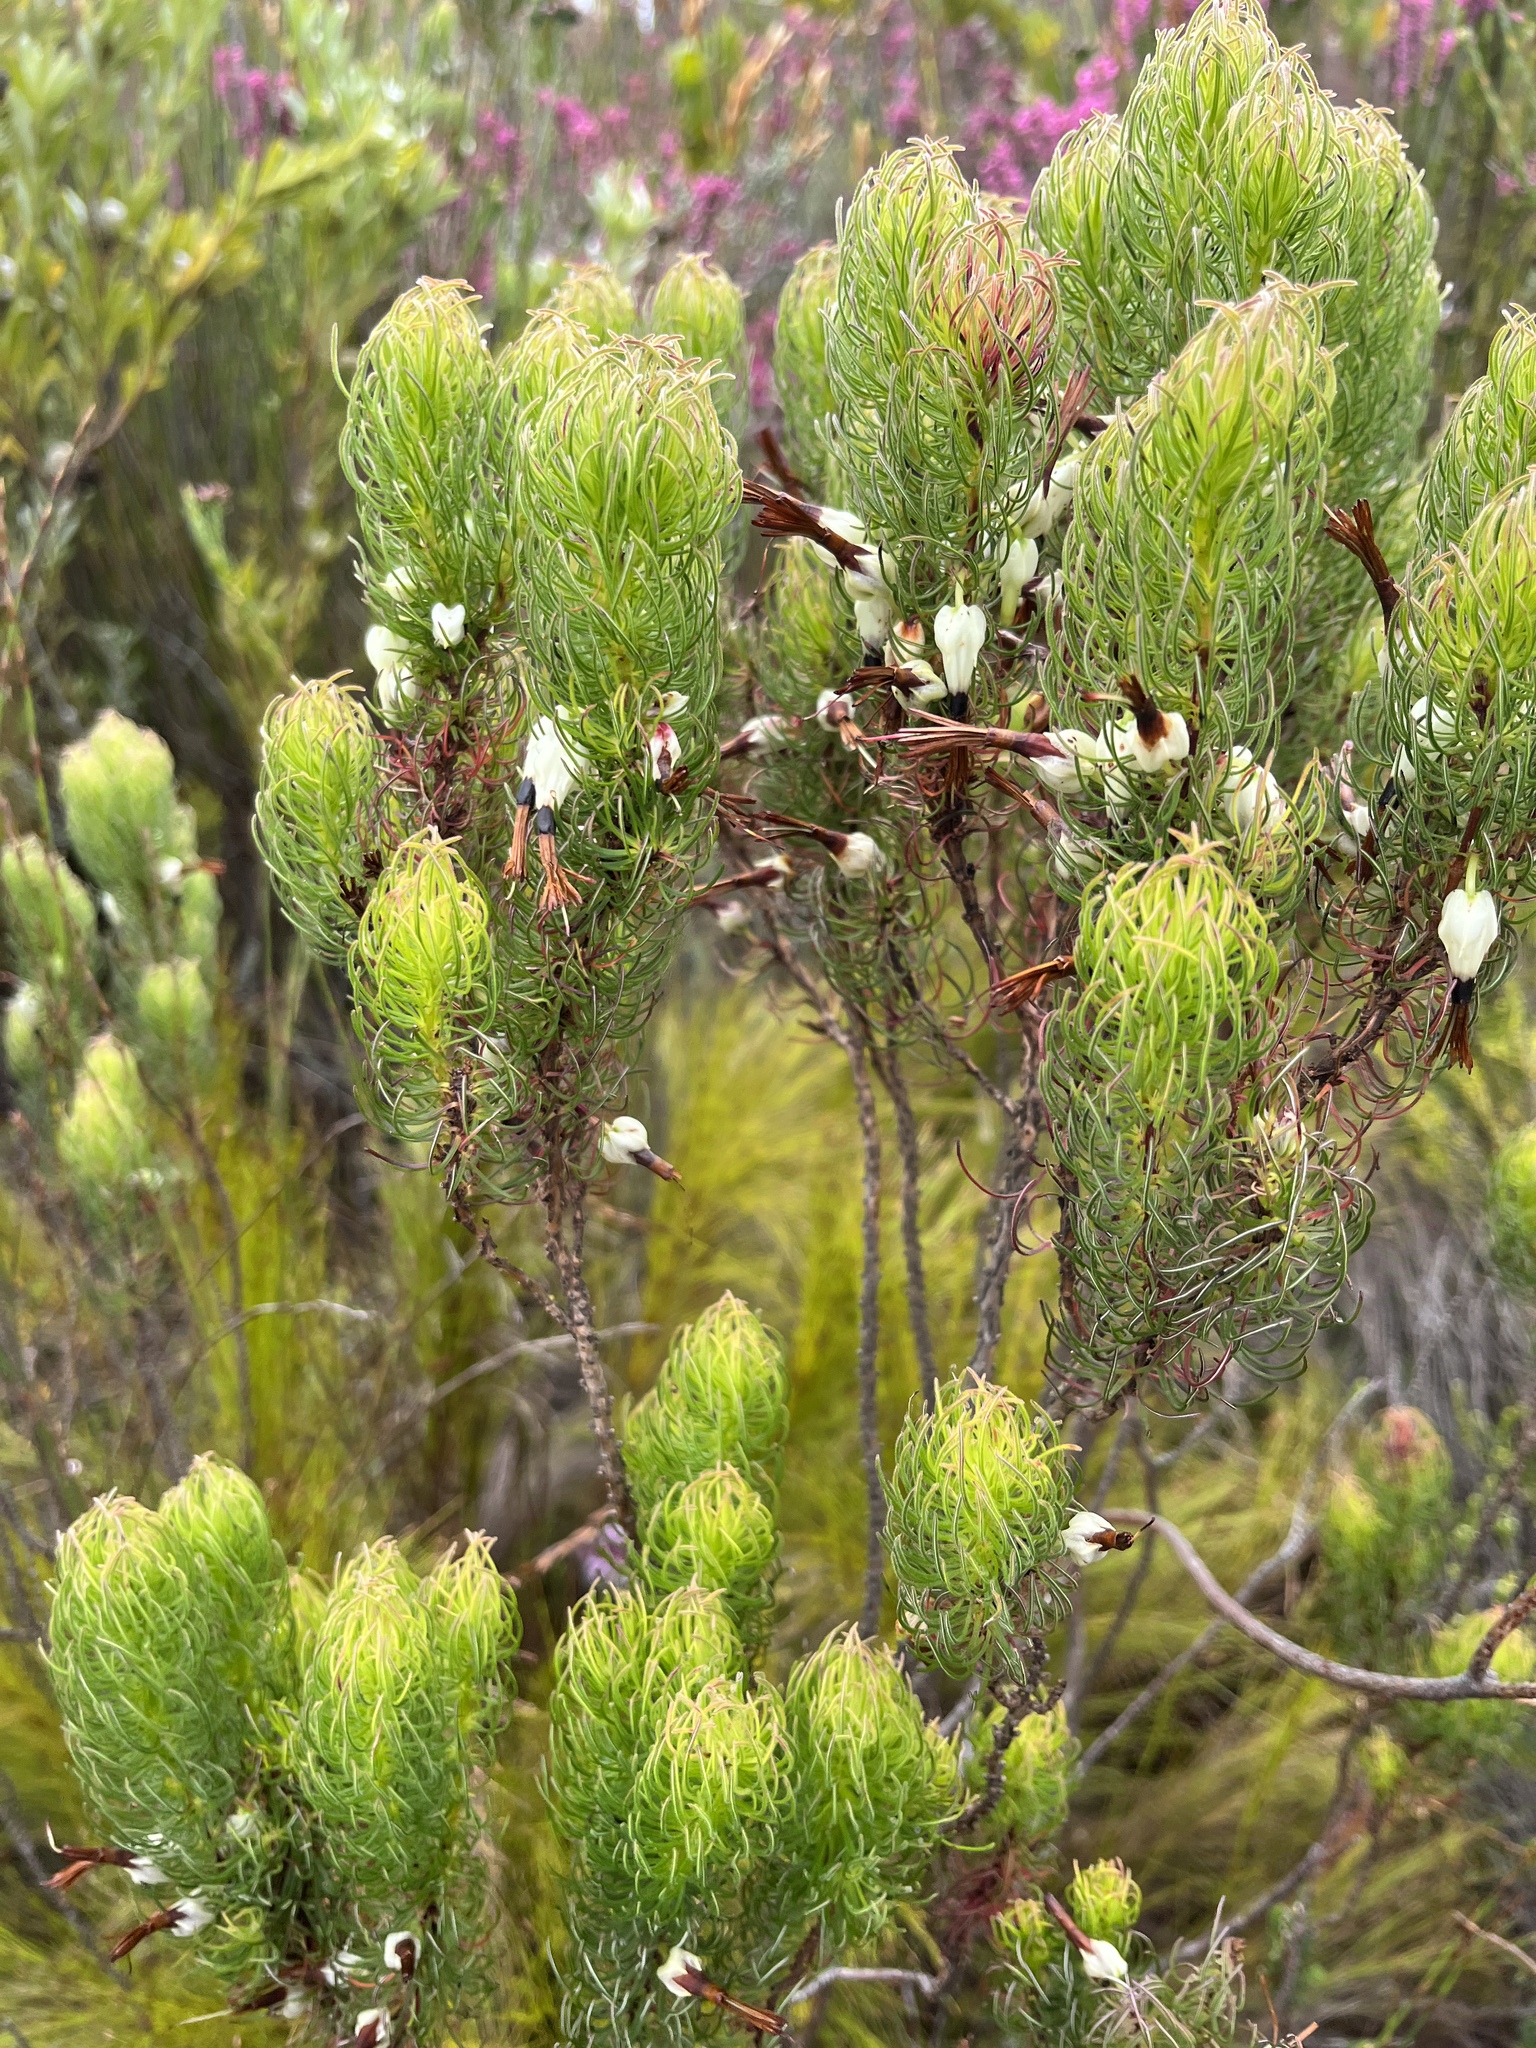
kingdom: Plantae
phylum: Tracheophyta
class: Magnoliopsida
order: Ericales
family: Ericaceae
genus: Erica
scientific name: Erica plukenetii
